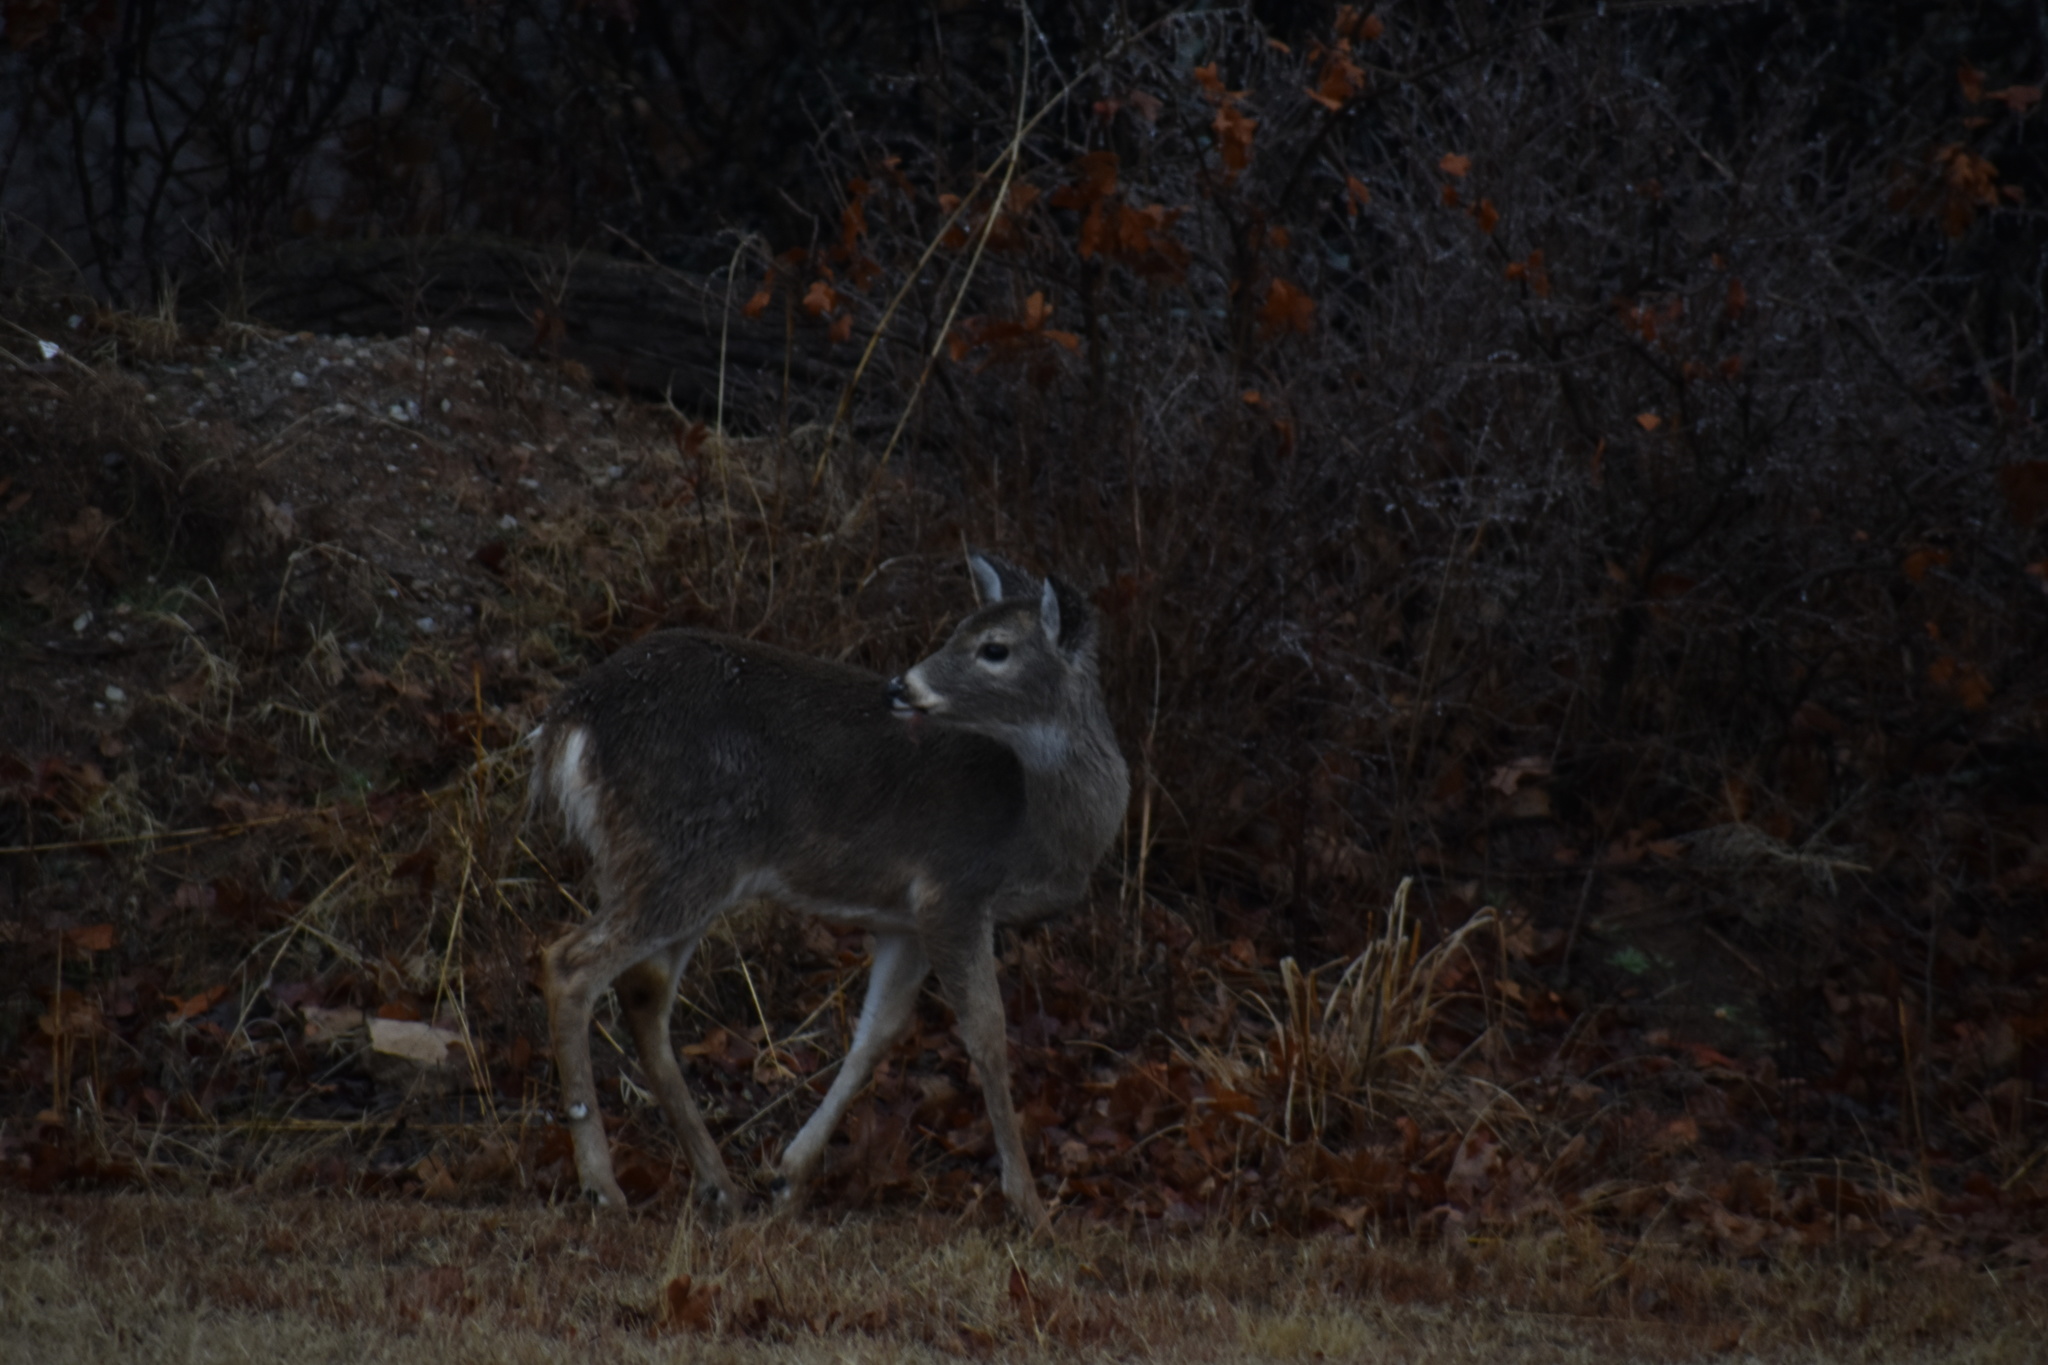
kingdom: Animalia
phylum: Chordata
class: Mammalia
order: Artiodactyla
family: Cervidae
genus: Odocoileus
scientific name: Odocoileus virginianus
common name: White-tailed deer
